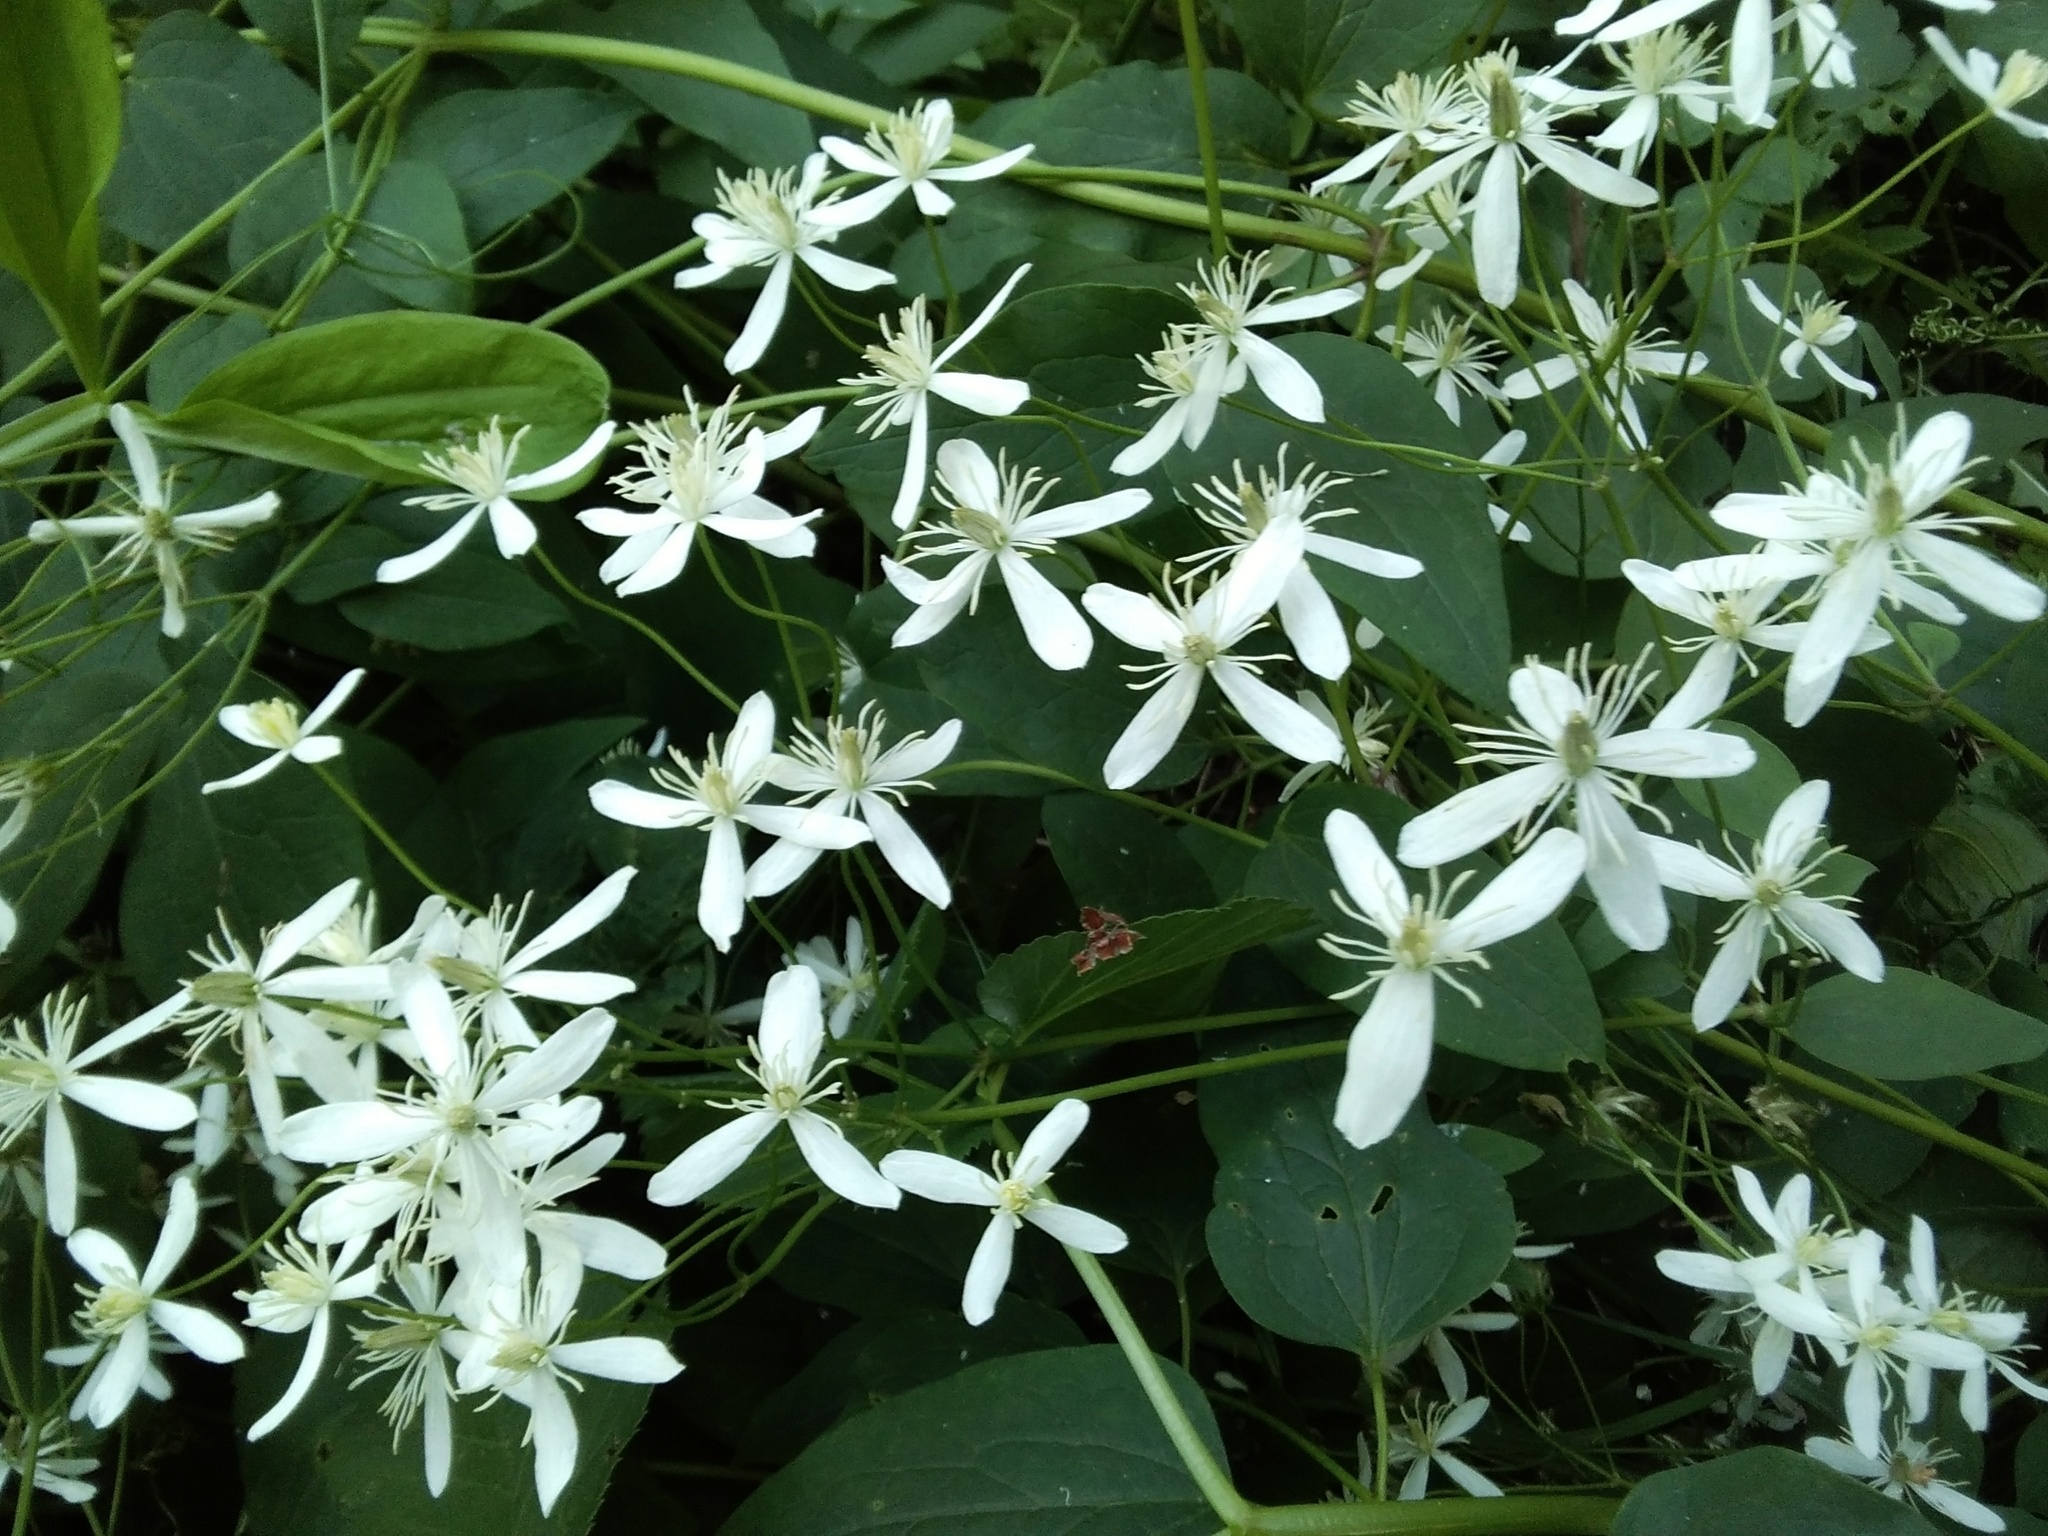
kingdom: Plantae
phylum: Tracheophyta
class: Magnoliopsida
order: Ranunculales
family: Ranunculaceae
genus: Clematis
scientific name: Clematis terniflora
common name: Sweet autumn clematis
